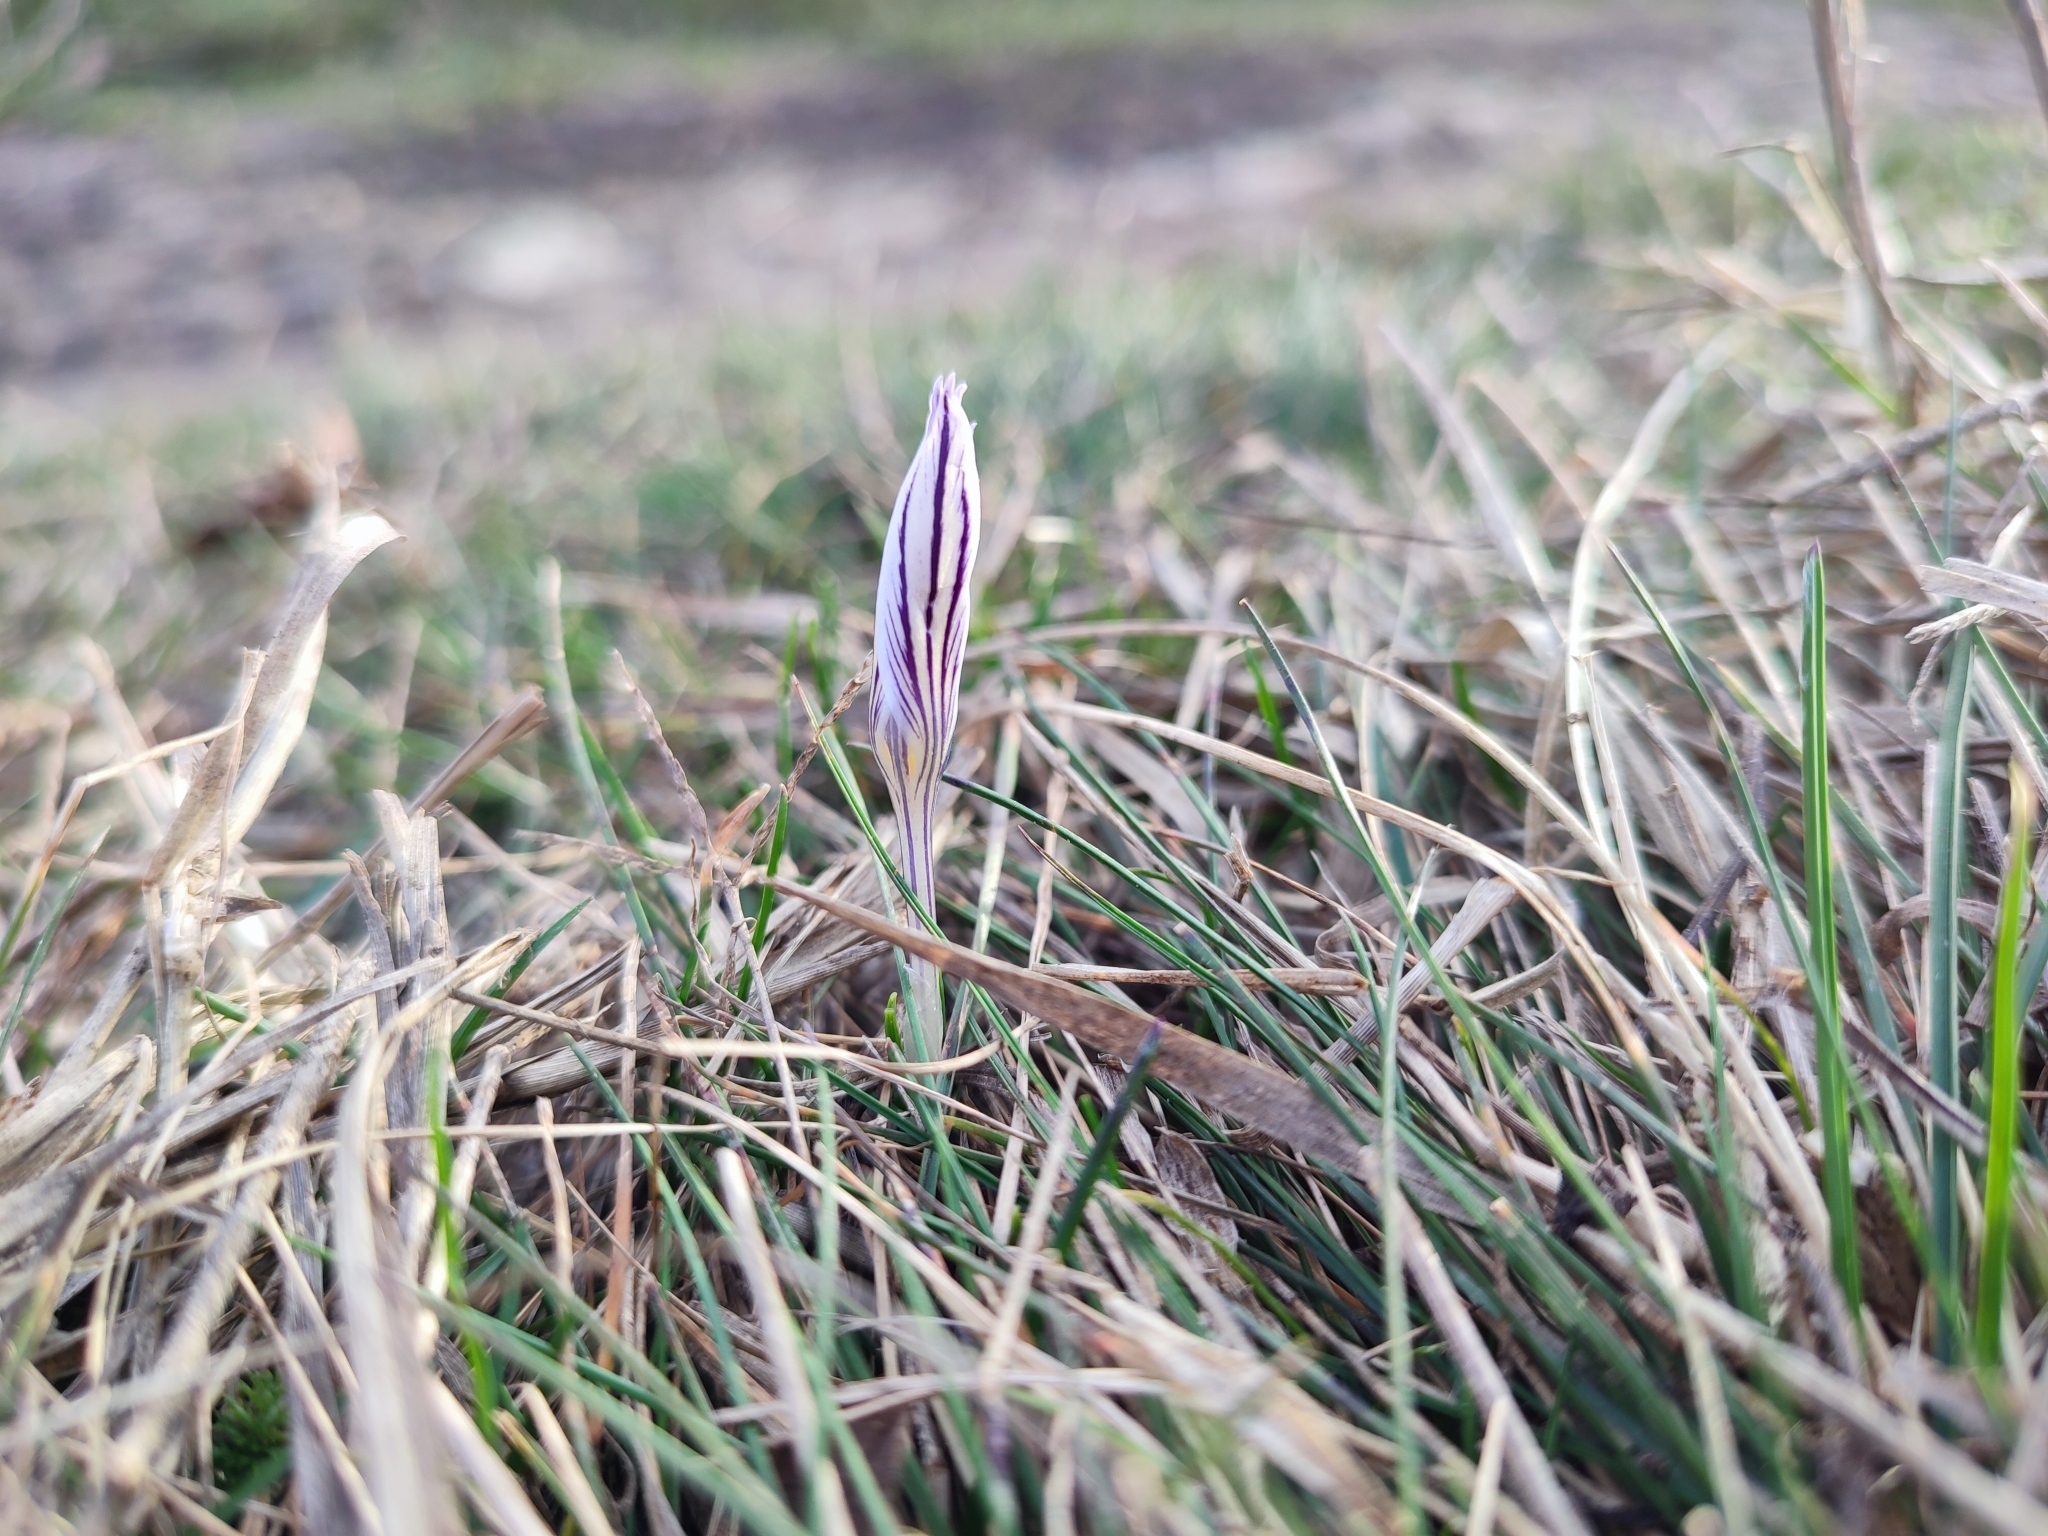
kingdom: Plantae
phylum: Tracheophyta
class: Liliopsida
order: Asparagales
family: Iridaceae
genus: Crocus
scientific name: Crocus reticulatus
